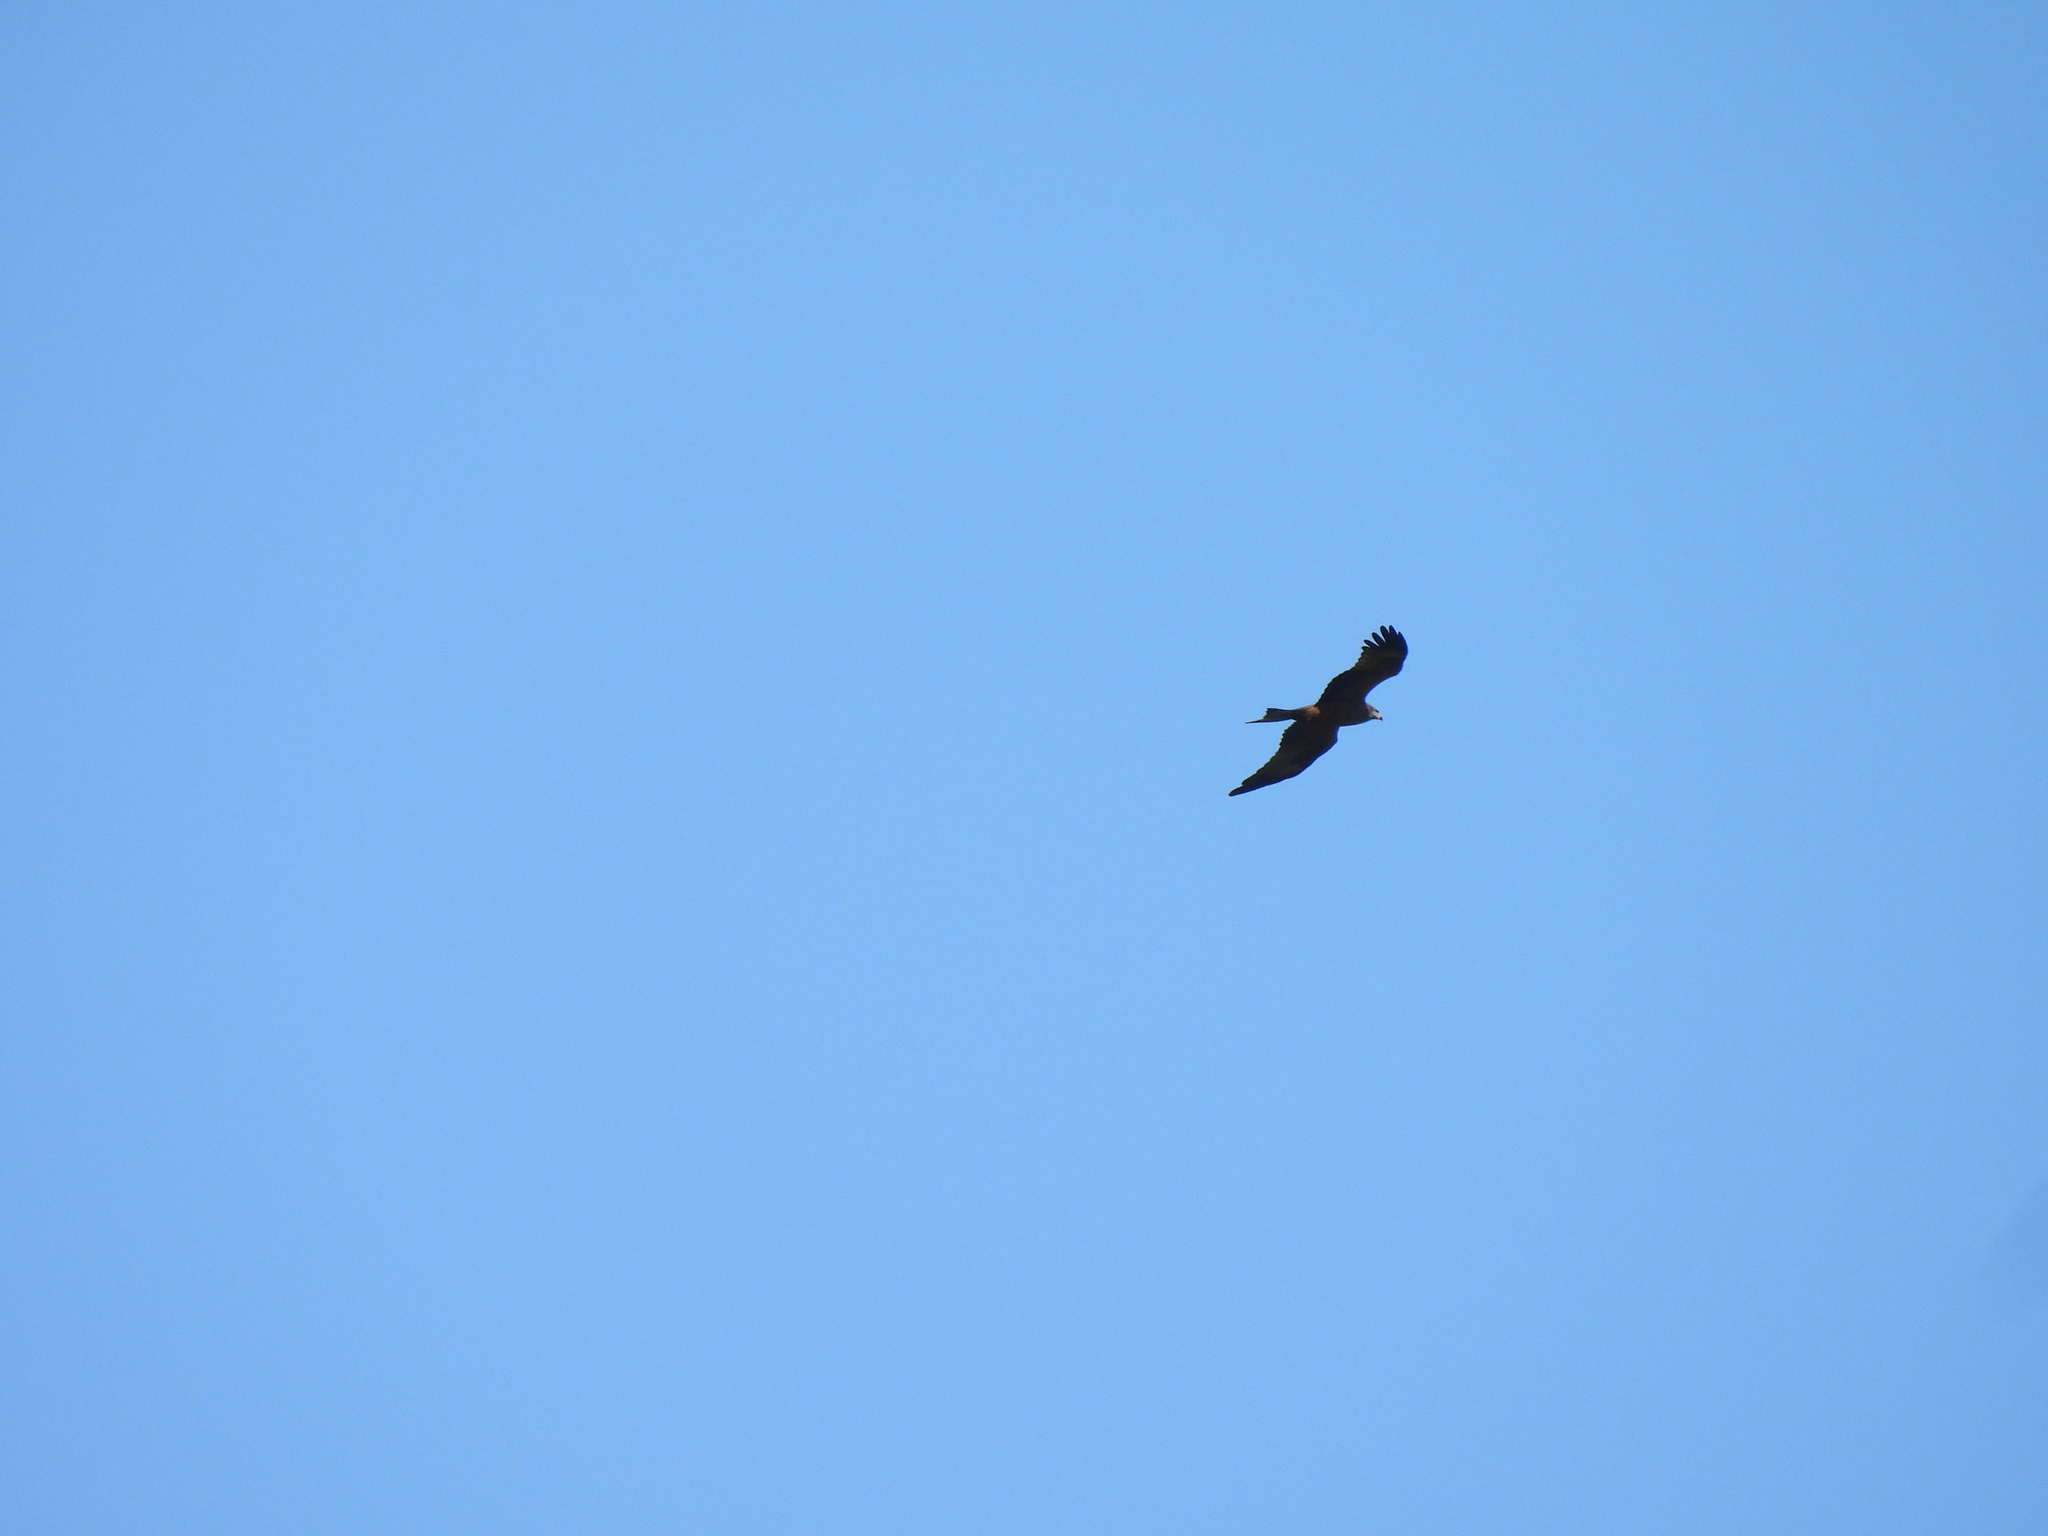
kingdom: Animalia
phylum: Chordata
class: Aves
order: Accipitriformes
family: Accipitridae
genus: Milvus
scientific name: Milvus migrans
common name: Black kite
